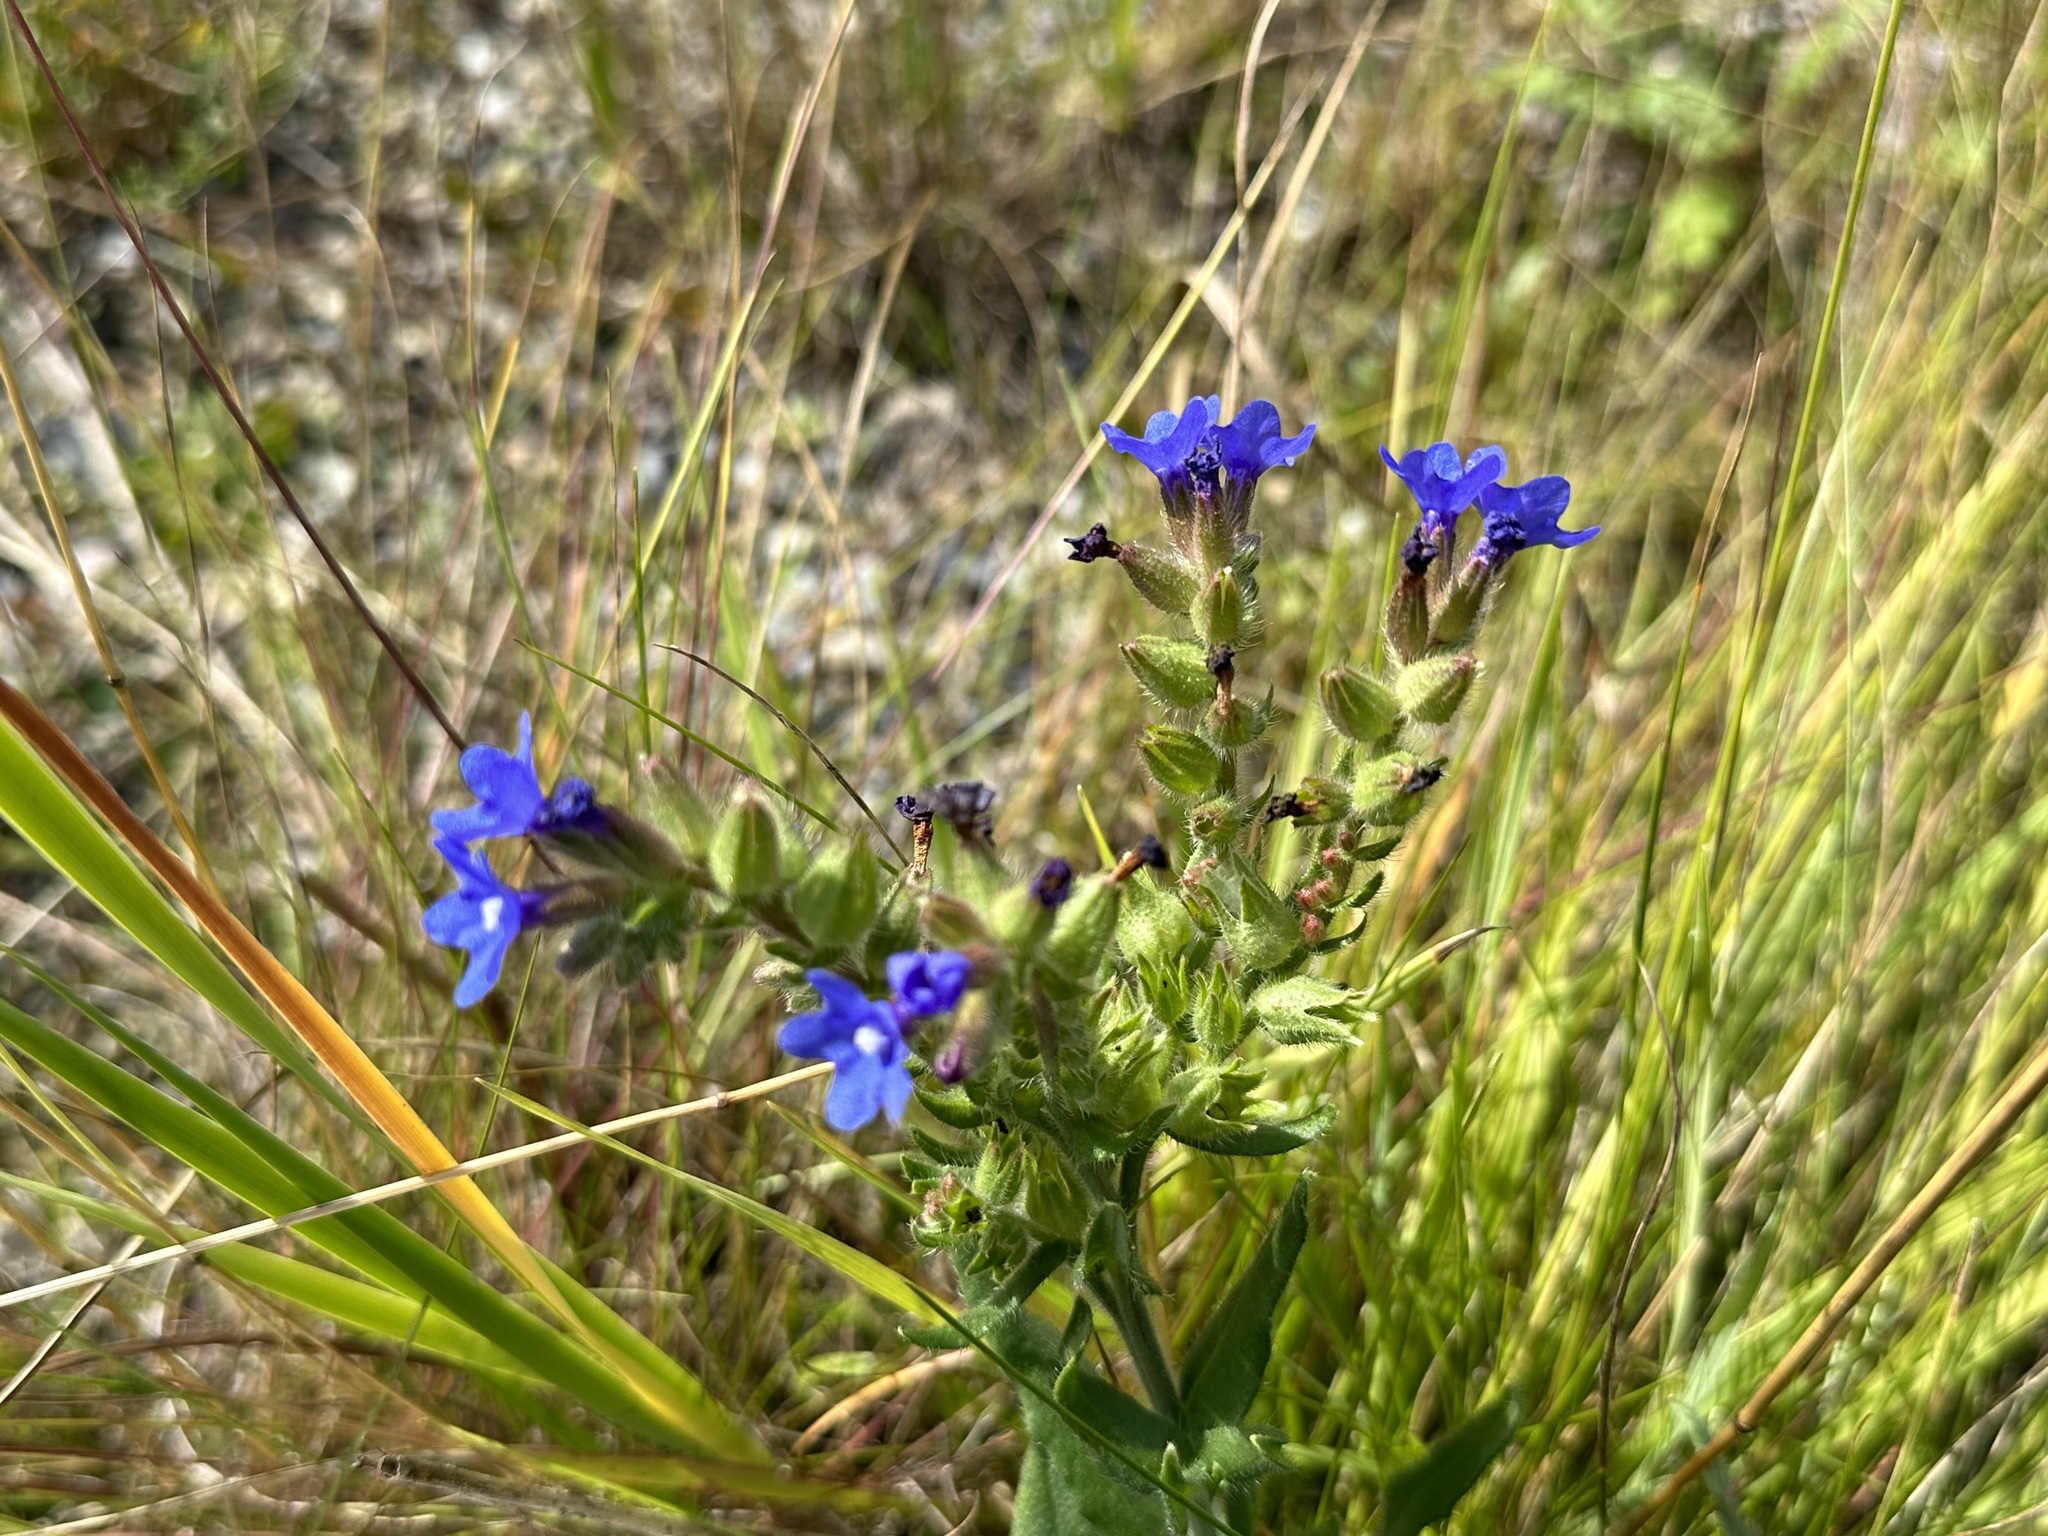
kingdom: Plantae
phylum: Tracheophyta
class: Magnoliopsida
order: Boraginales
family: Boraginaceae
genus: Anchusa
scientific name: Anchusa officinalis
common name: Alkanet
